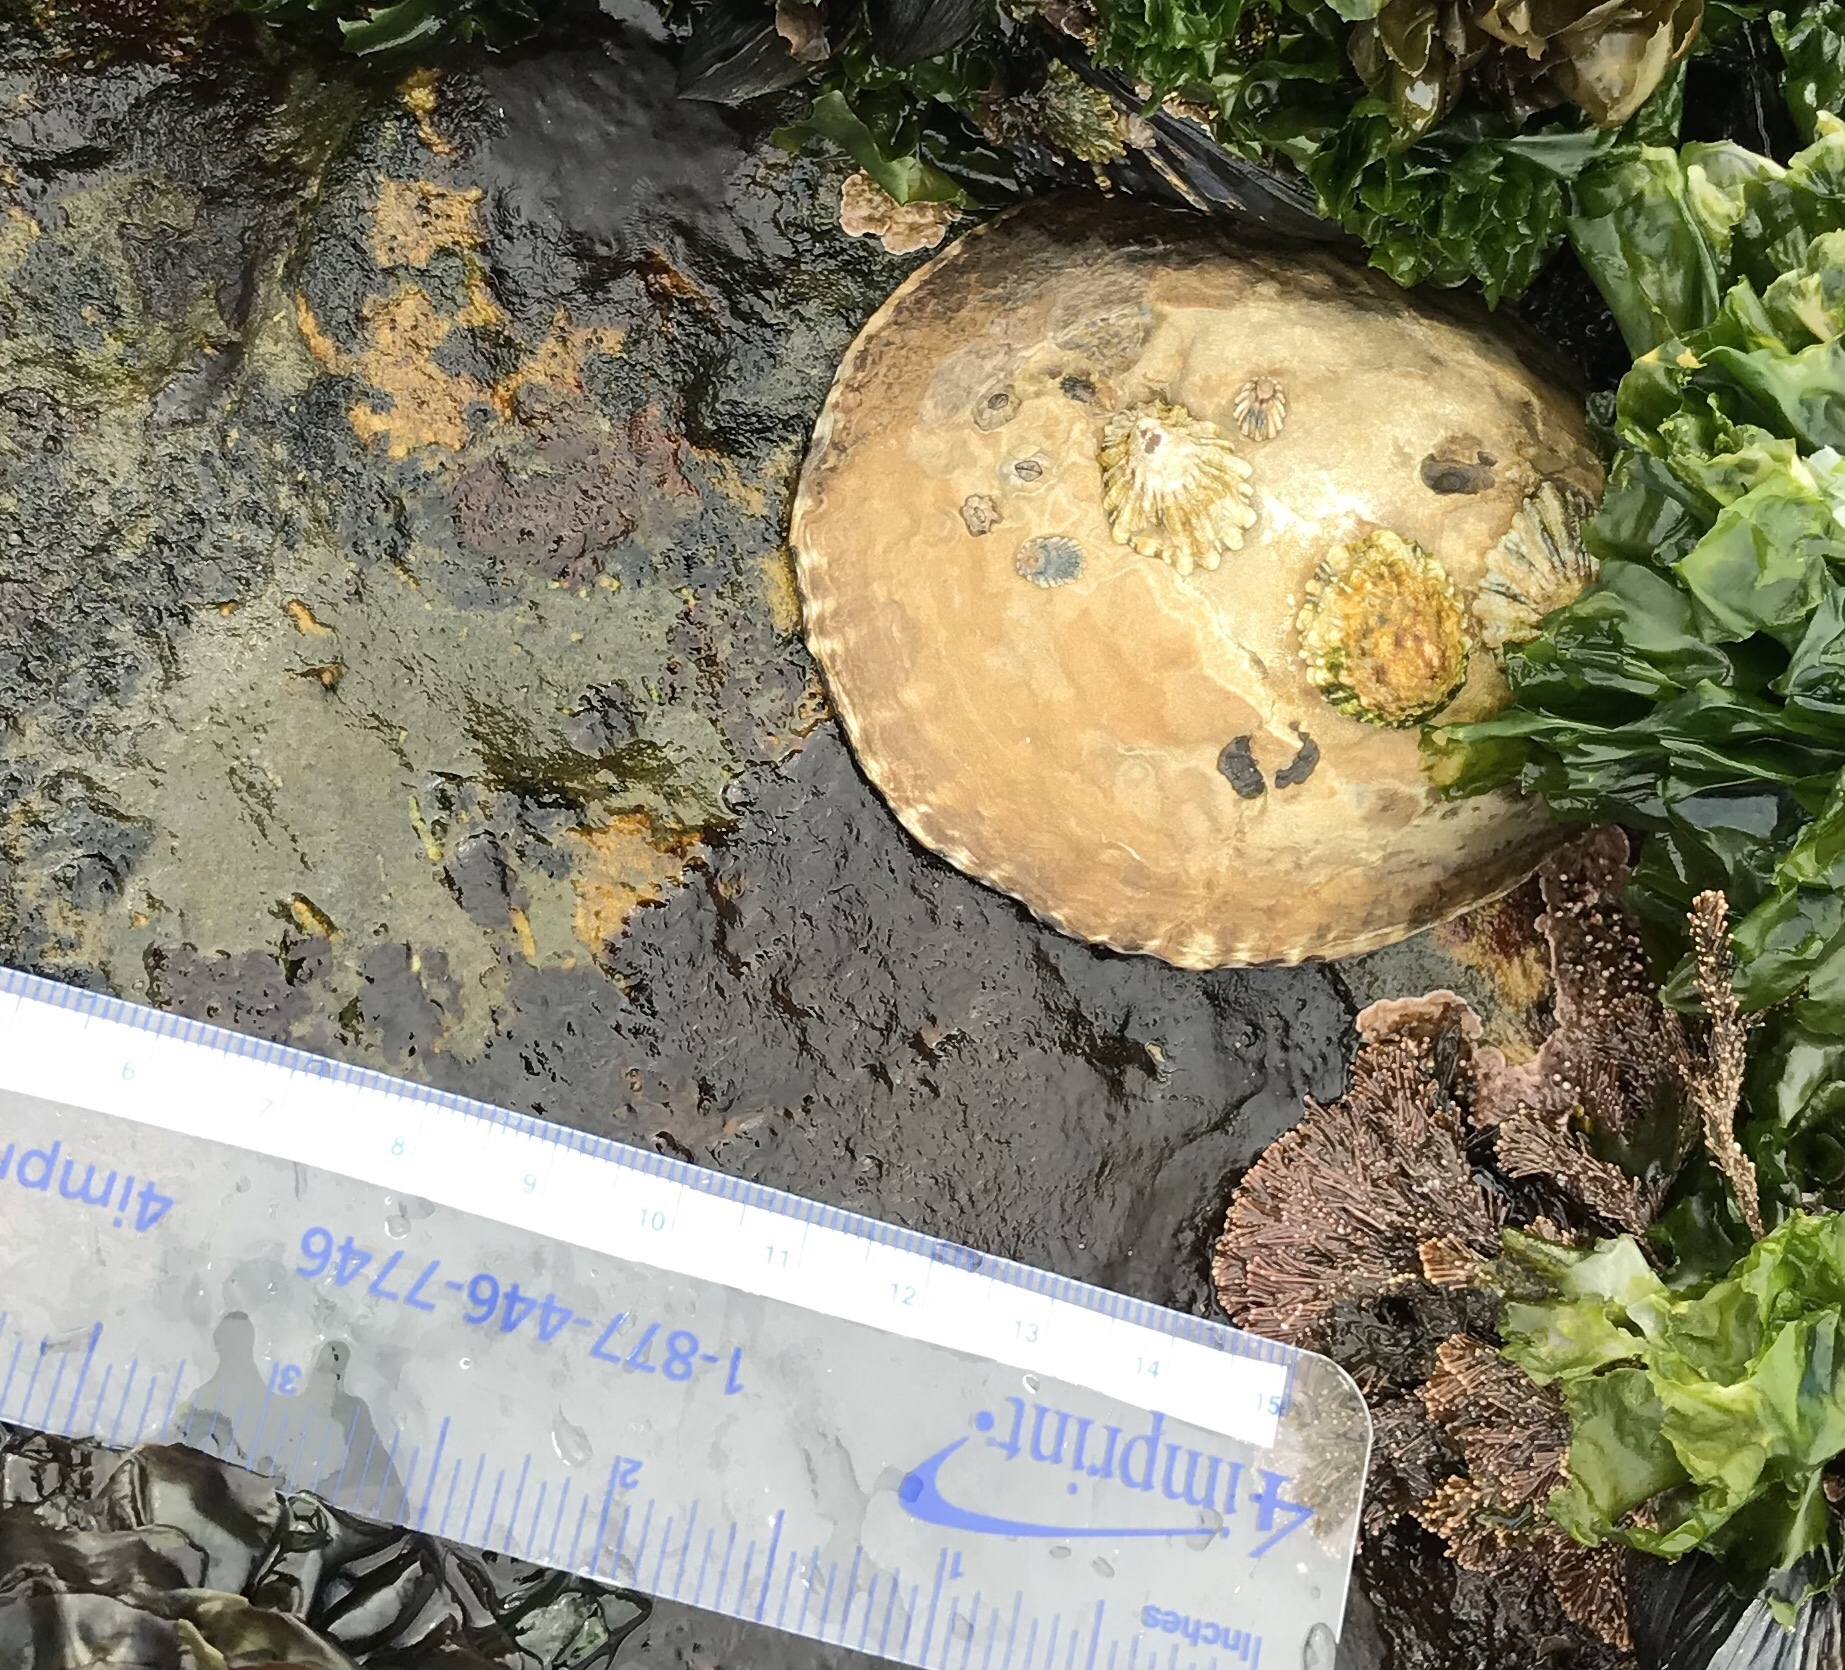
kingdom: Animalia
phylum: Mollusca
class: Gastropoda
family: Lottiidae
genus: Lottia
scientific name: Lottia gigantea
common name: Owl limpet
